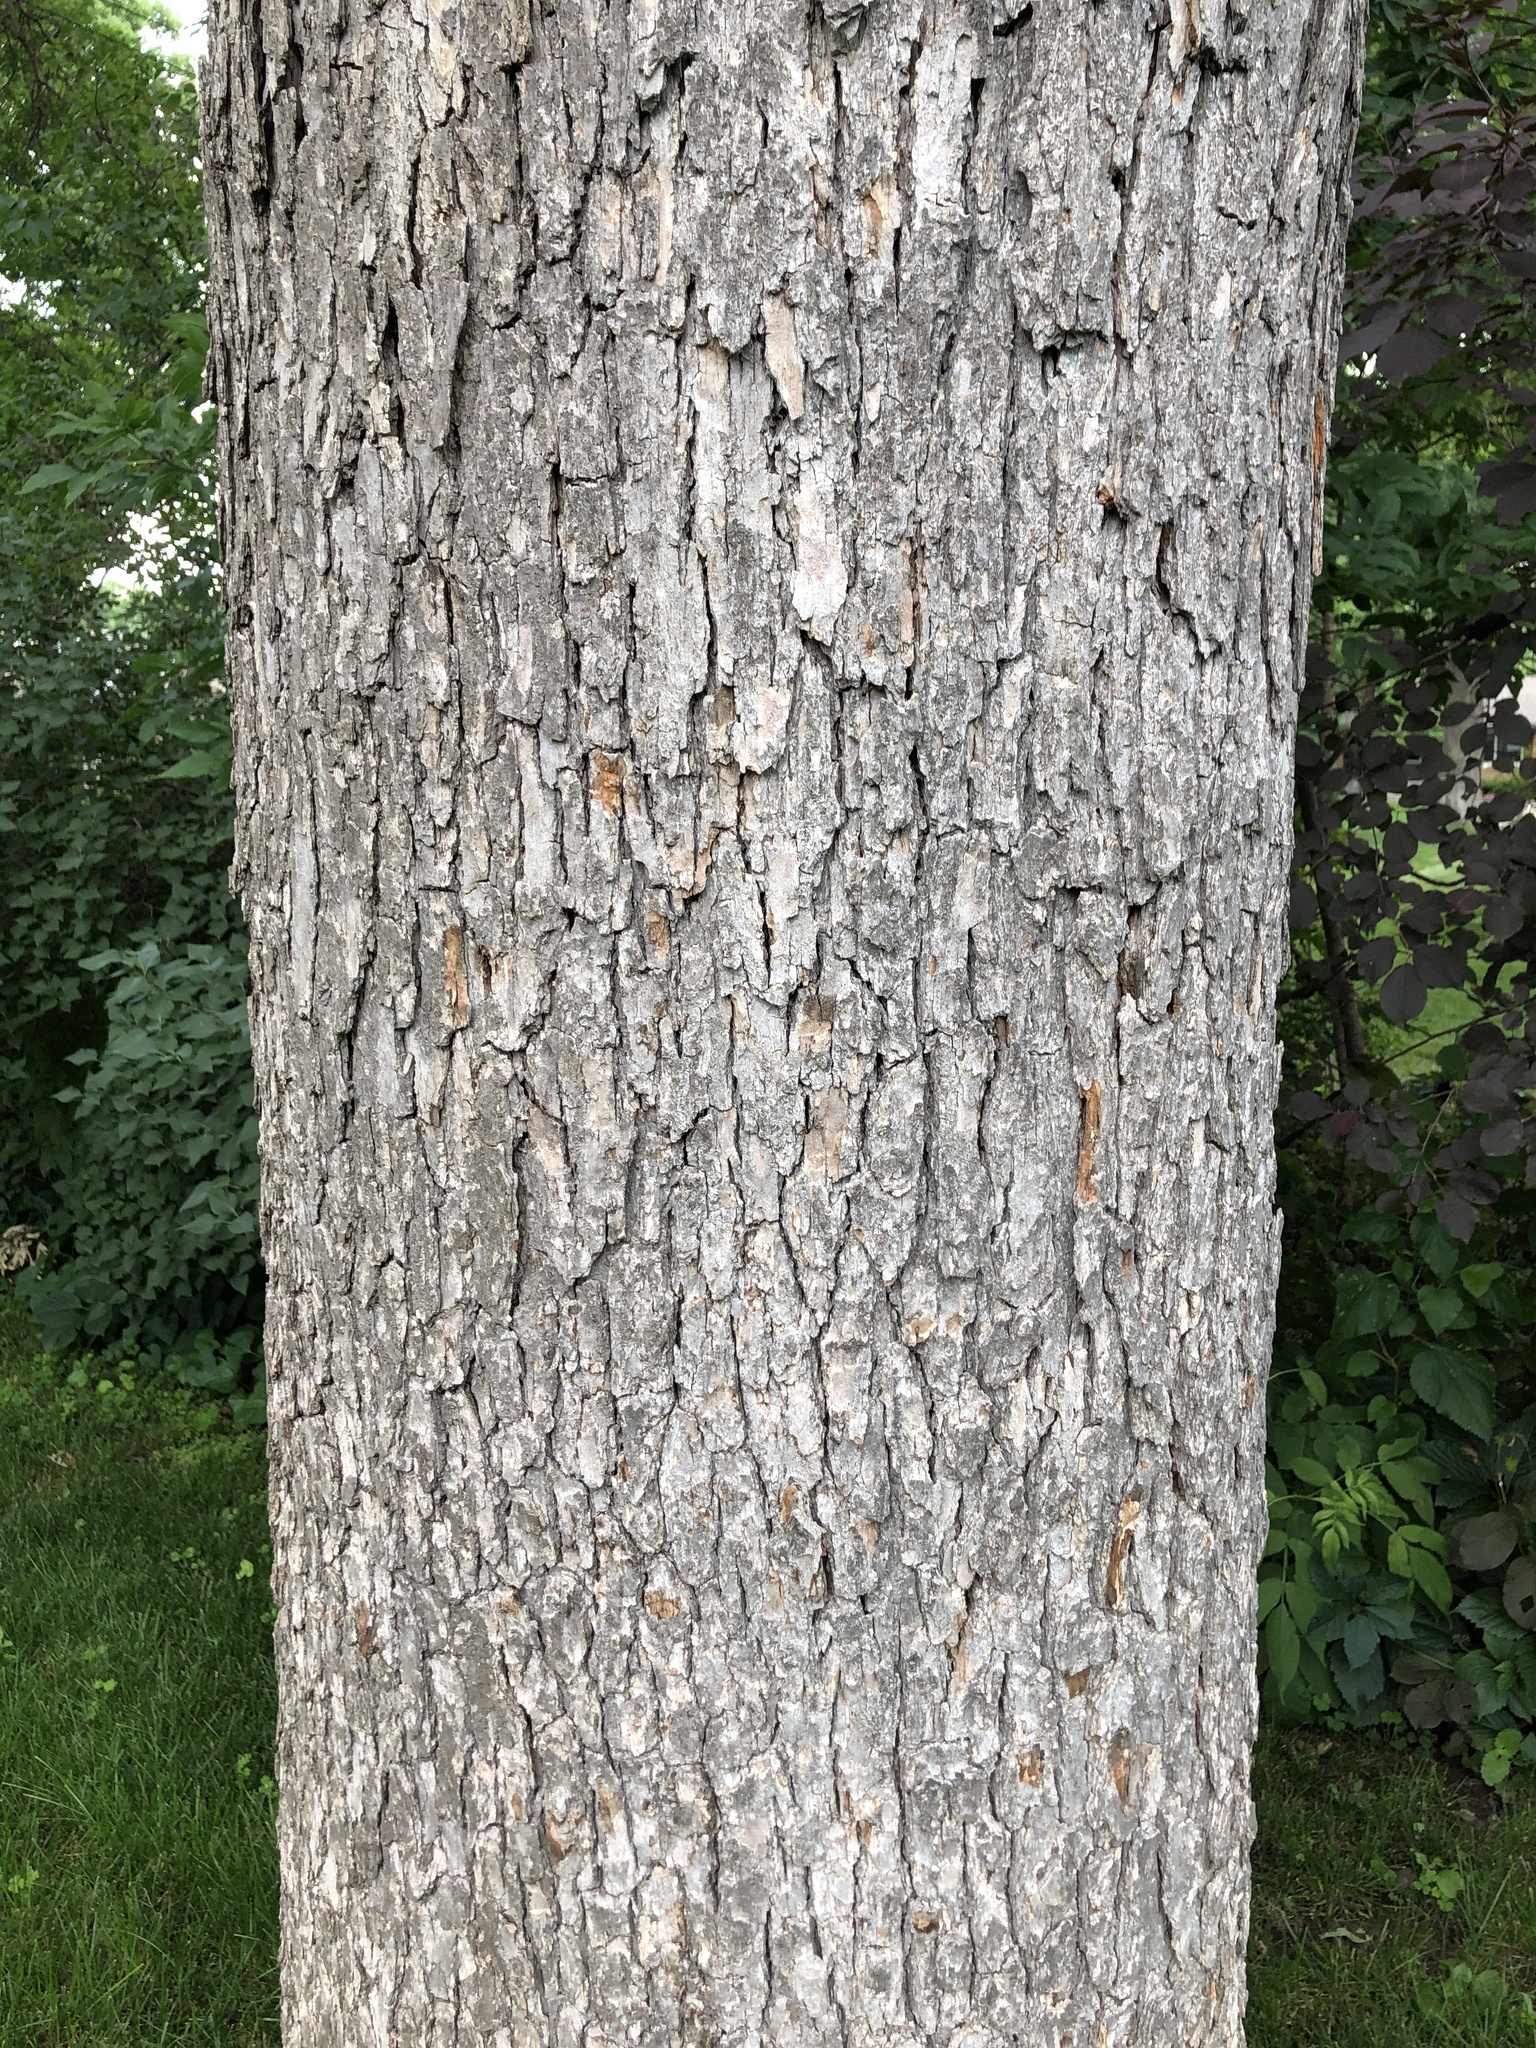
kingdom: Plantae
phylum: Tracheophyta
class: Magnoliopsida
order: Fagales
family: Fagaceae
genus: Quercus
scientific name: Quercus alba
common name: White oak
